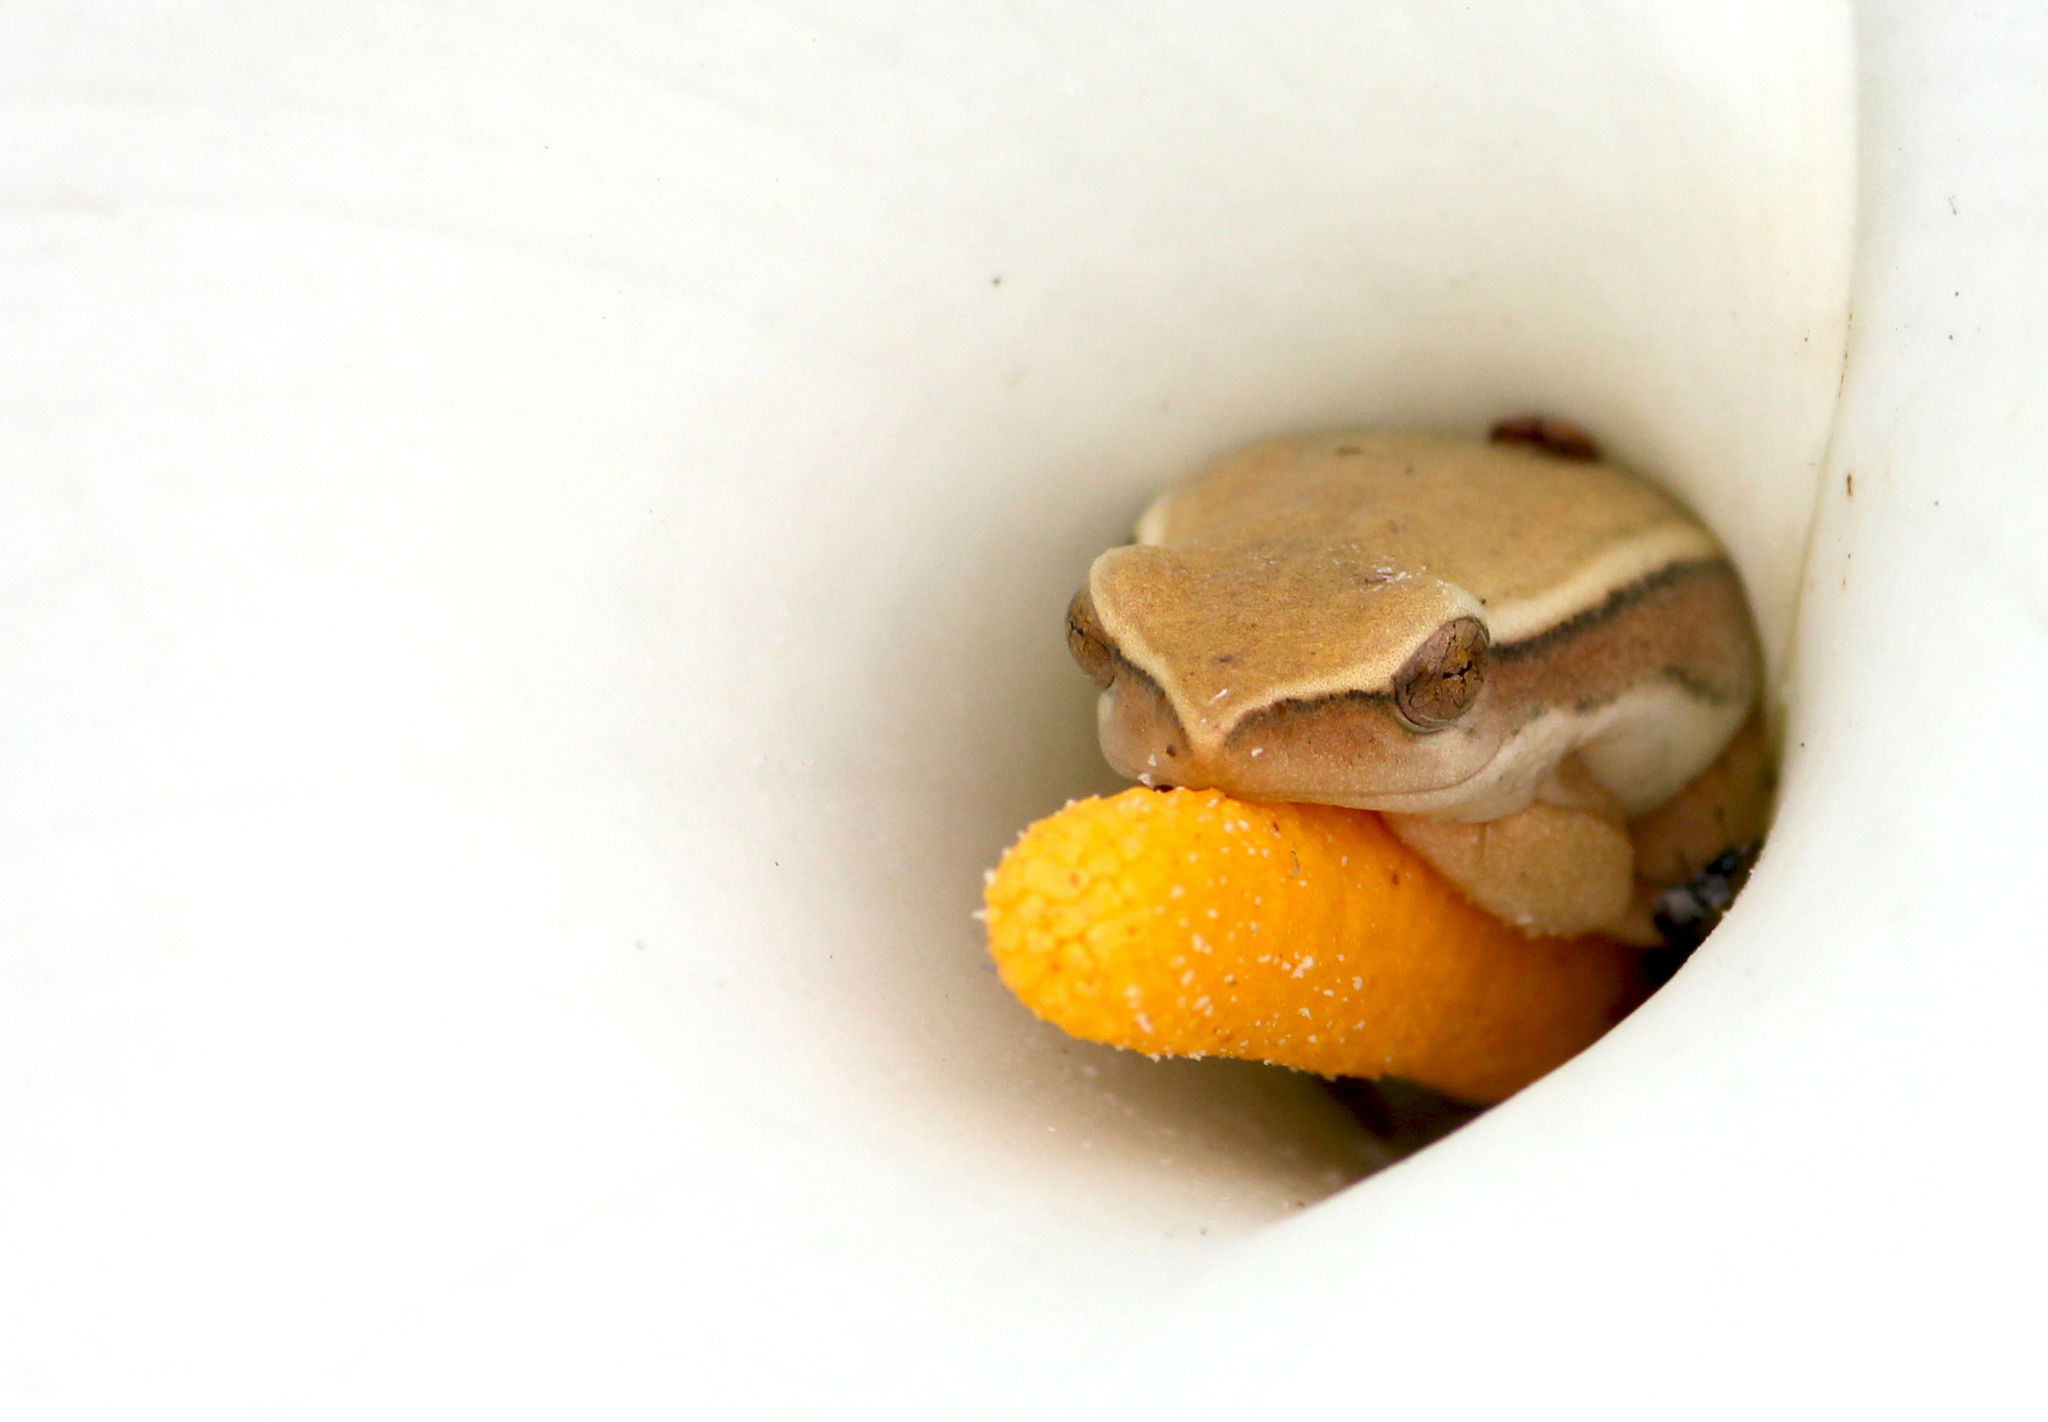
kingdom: Animalia
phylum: Chordata
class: Amphibia
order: Anura
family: Hyperoliidae
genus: Hyperolius
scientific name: Hyperolius horstockii
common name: Arum lily frog
